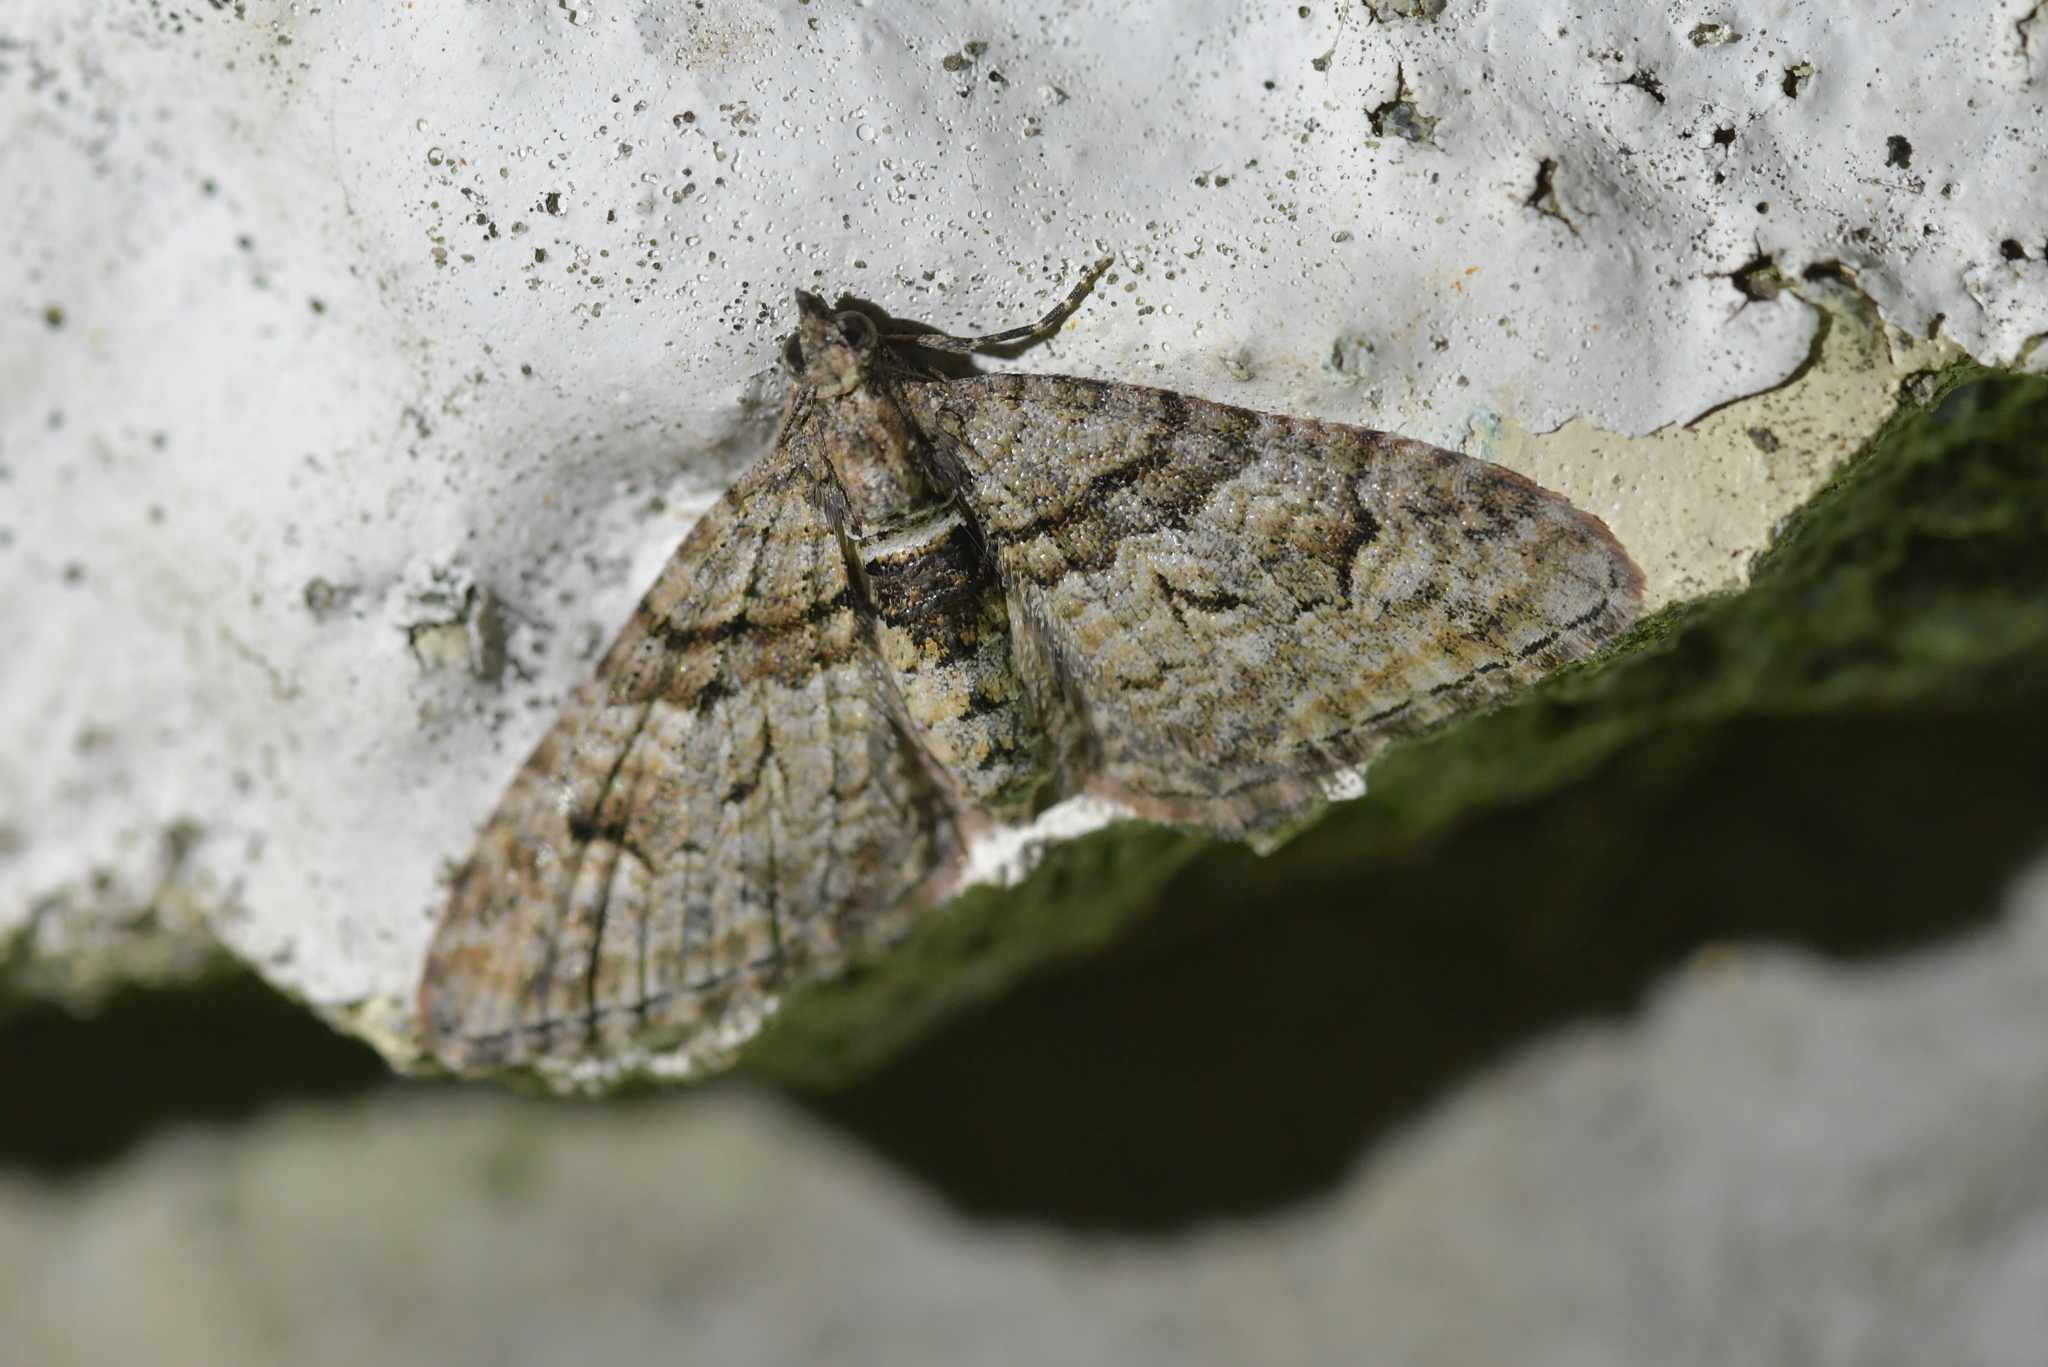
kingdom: Animalia
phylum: Arthropoda
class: Insecta
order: Lepidoptera
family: Geometridae
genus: Phrissogonus
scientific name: Phrissogonus laticostata
